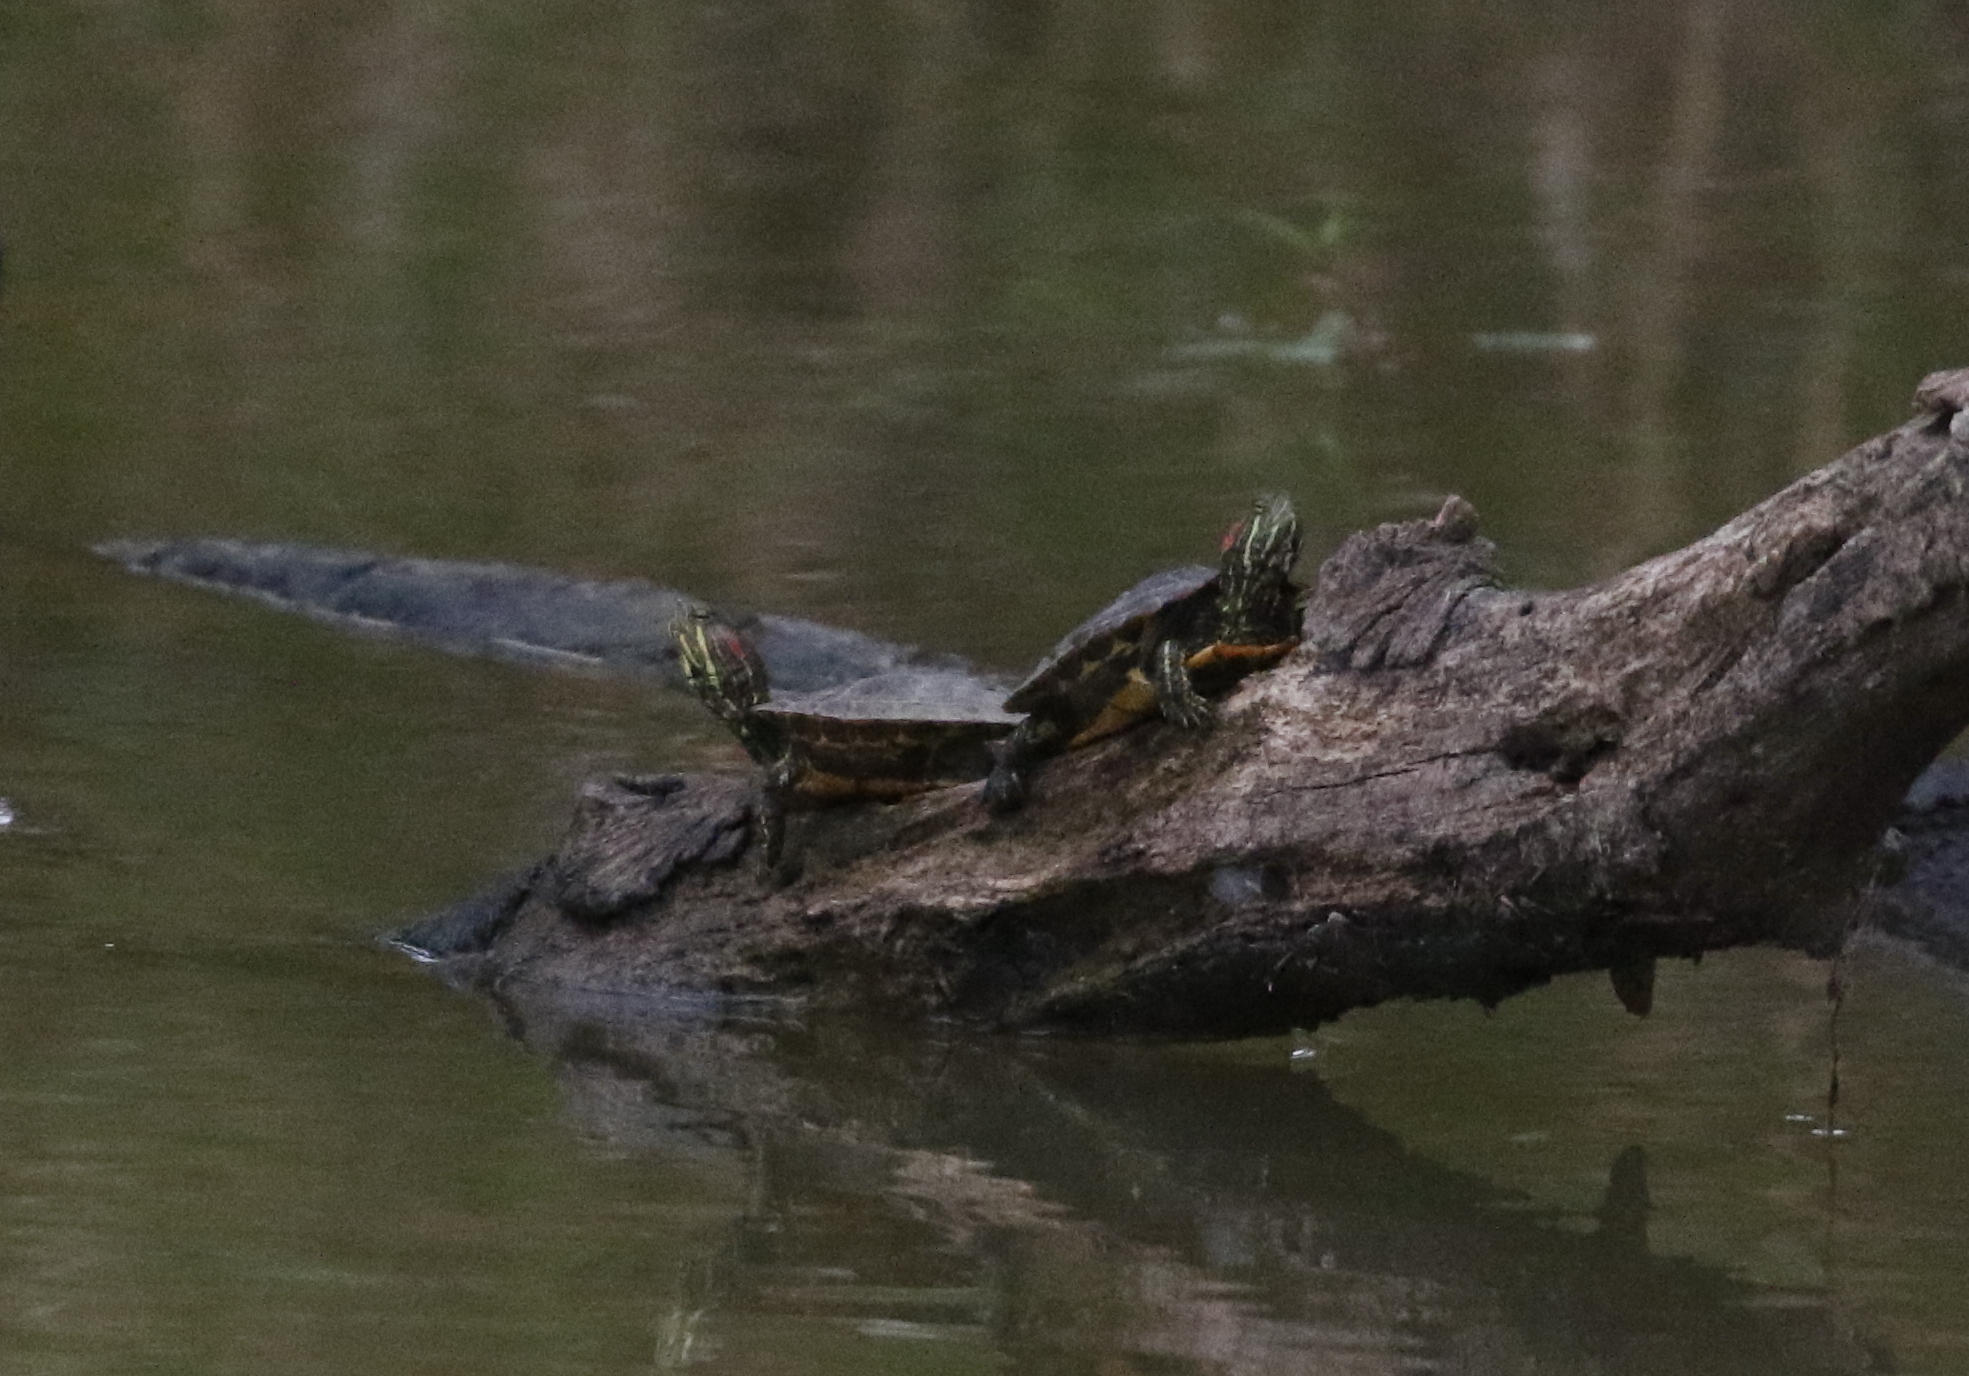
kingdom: Animalia
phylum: Chordata
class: Testudines
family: Emydidae
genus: Trachemys
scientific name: Trachemys scripta
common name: Slider
